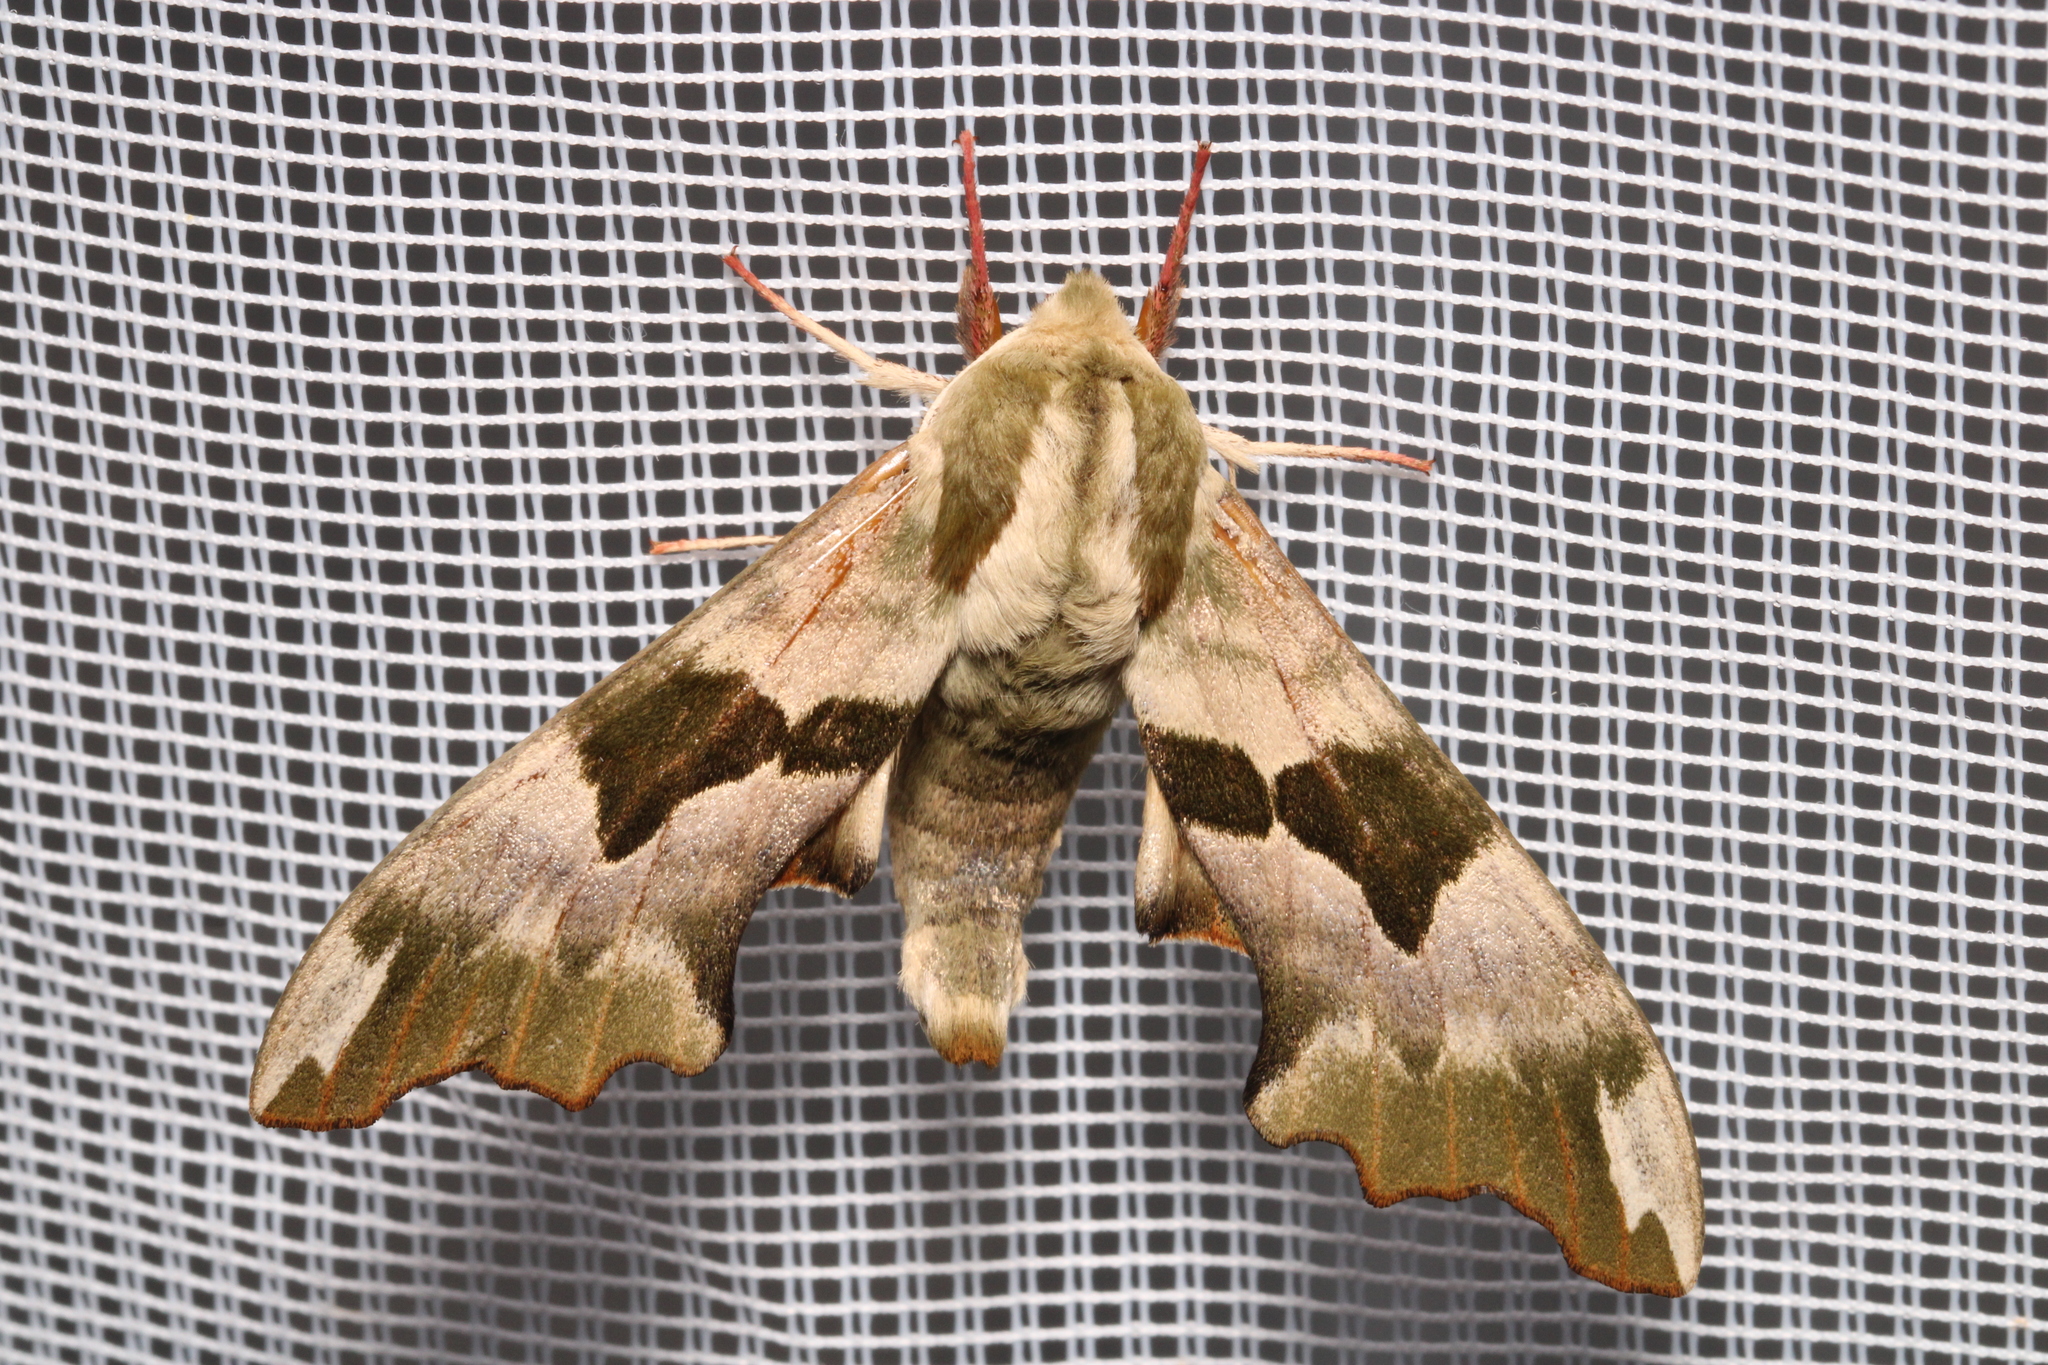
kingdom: Animalia
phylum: Arthropoda
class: Insecta
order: Lepidoptera
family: Sphingidae
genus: Mimas
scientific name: Mimas tiliae
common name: Lime hawk-moth
